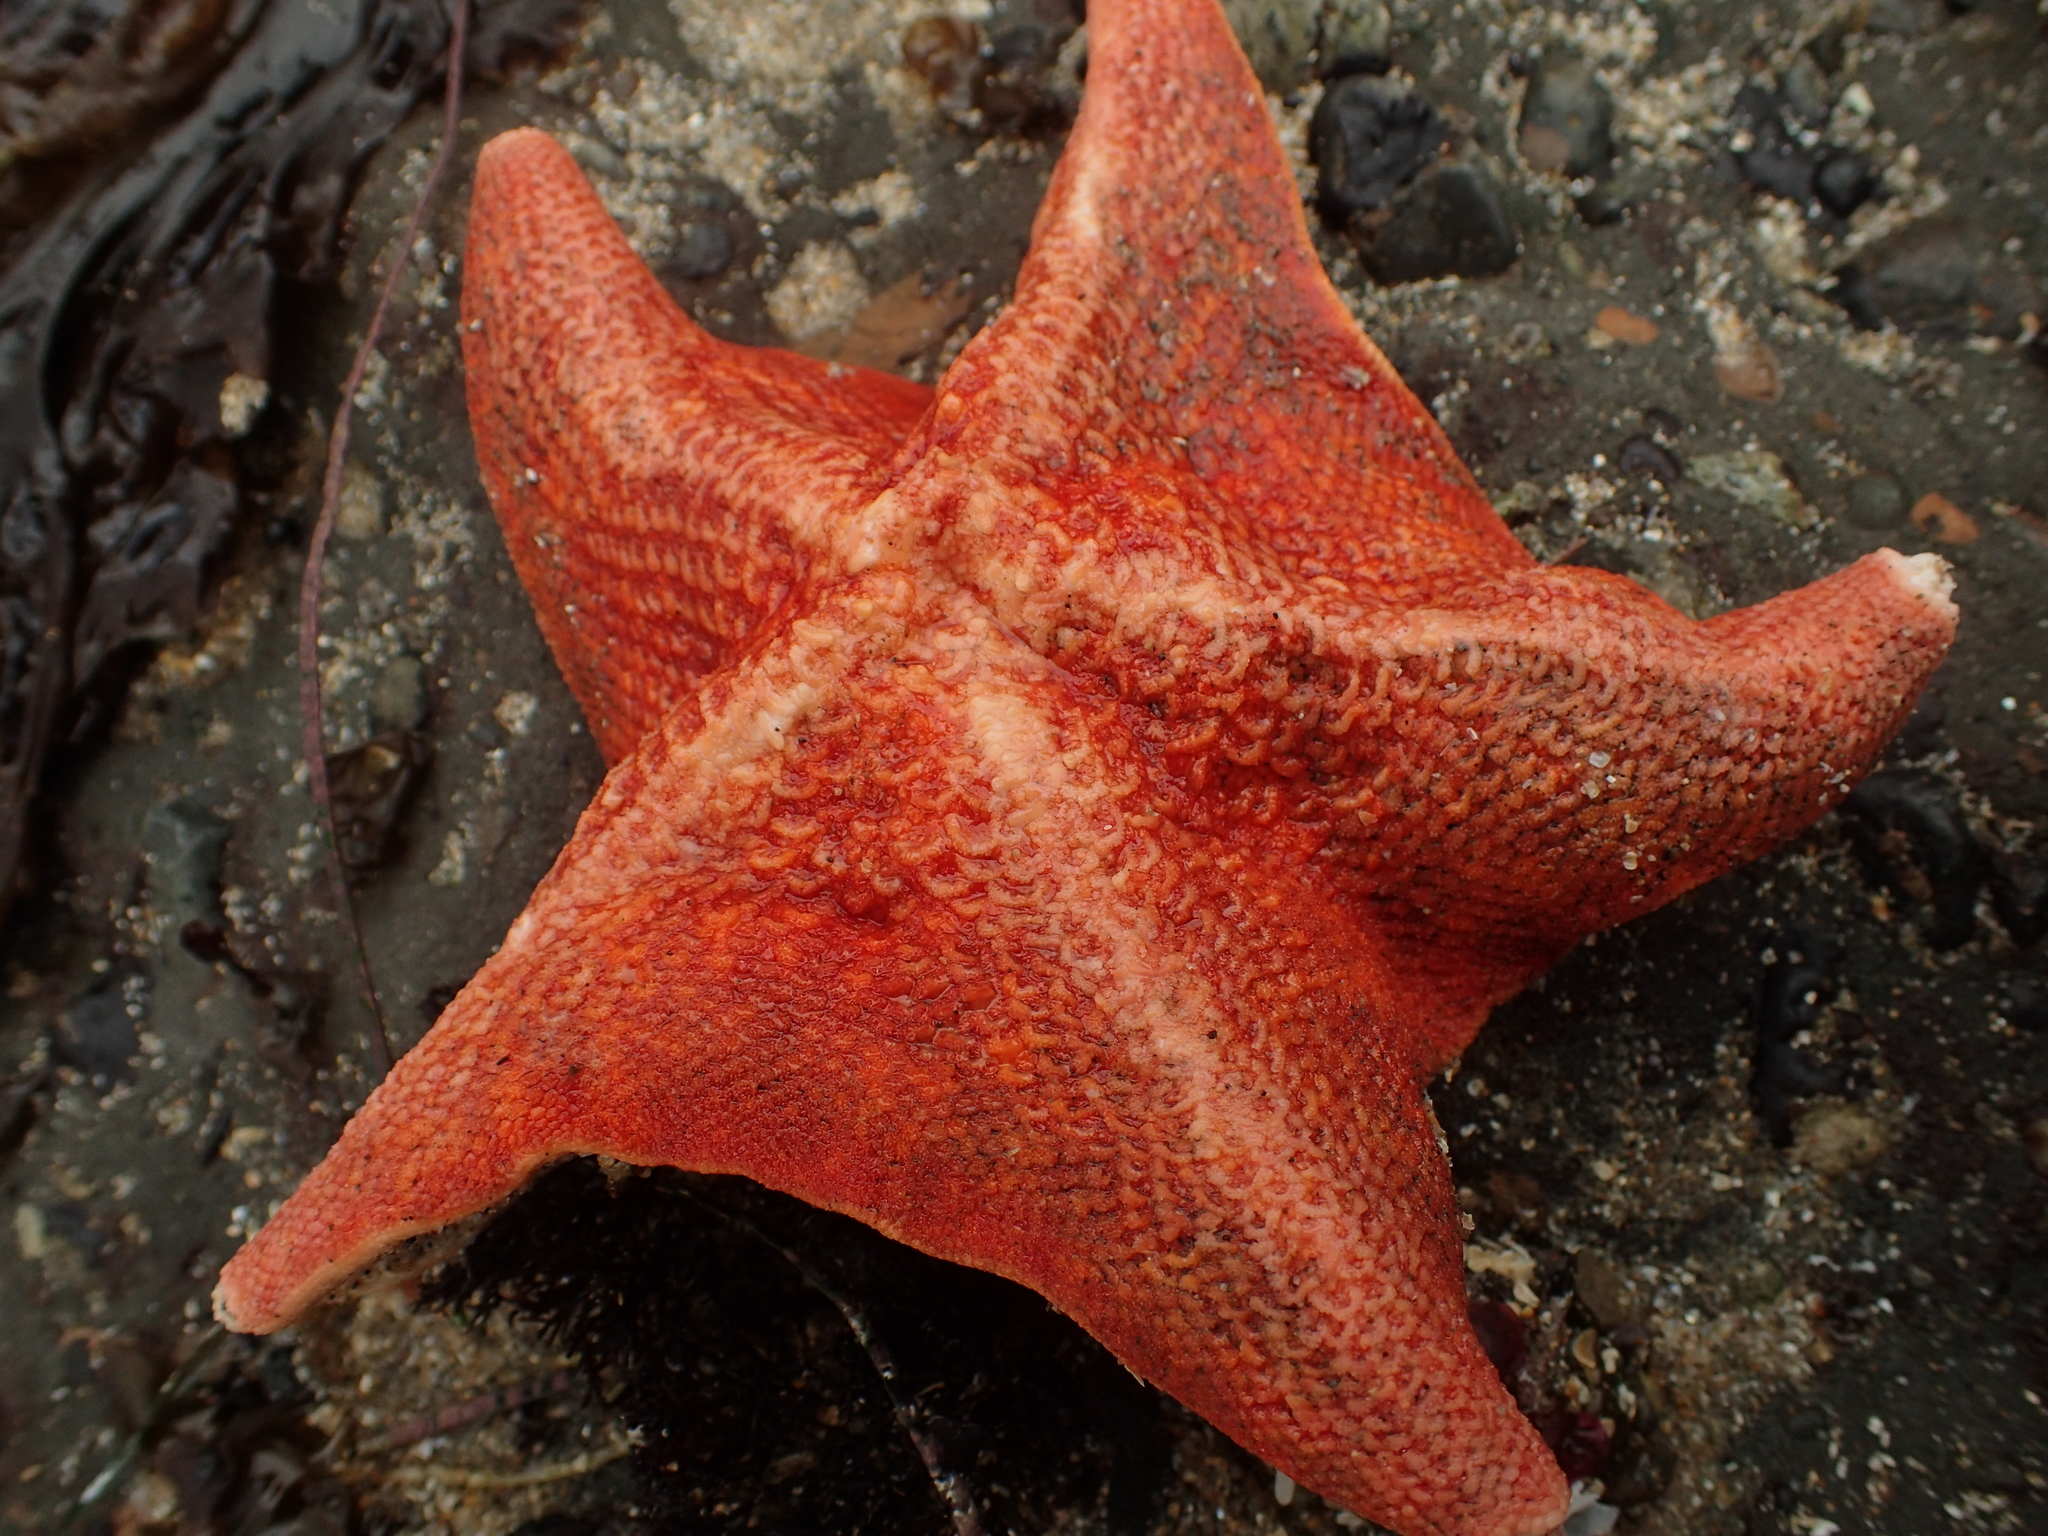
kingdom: Animalia
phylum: Echinodermata
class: Asteroidea
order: Valvatida
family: Asterinidae
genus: Patiria
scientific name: Patiria miniata
